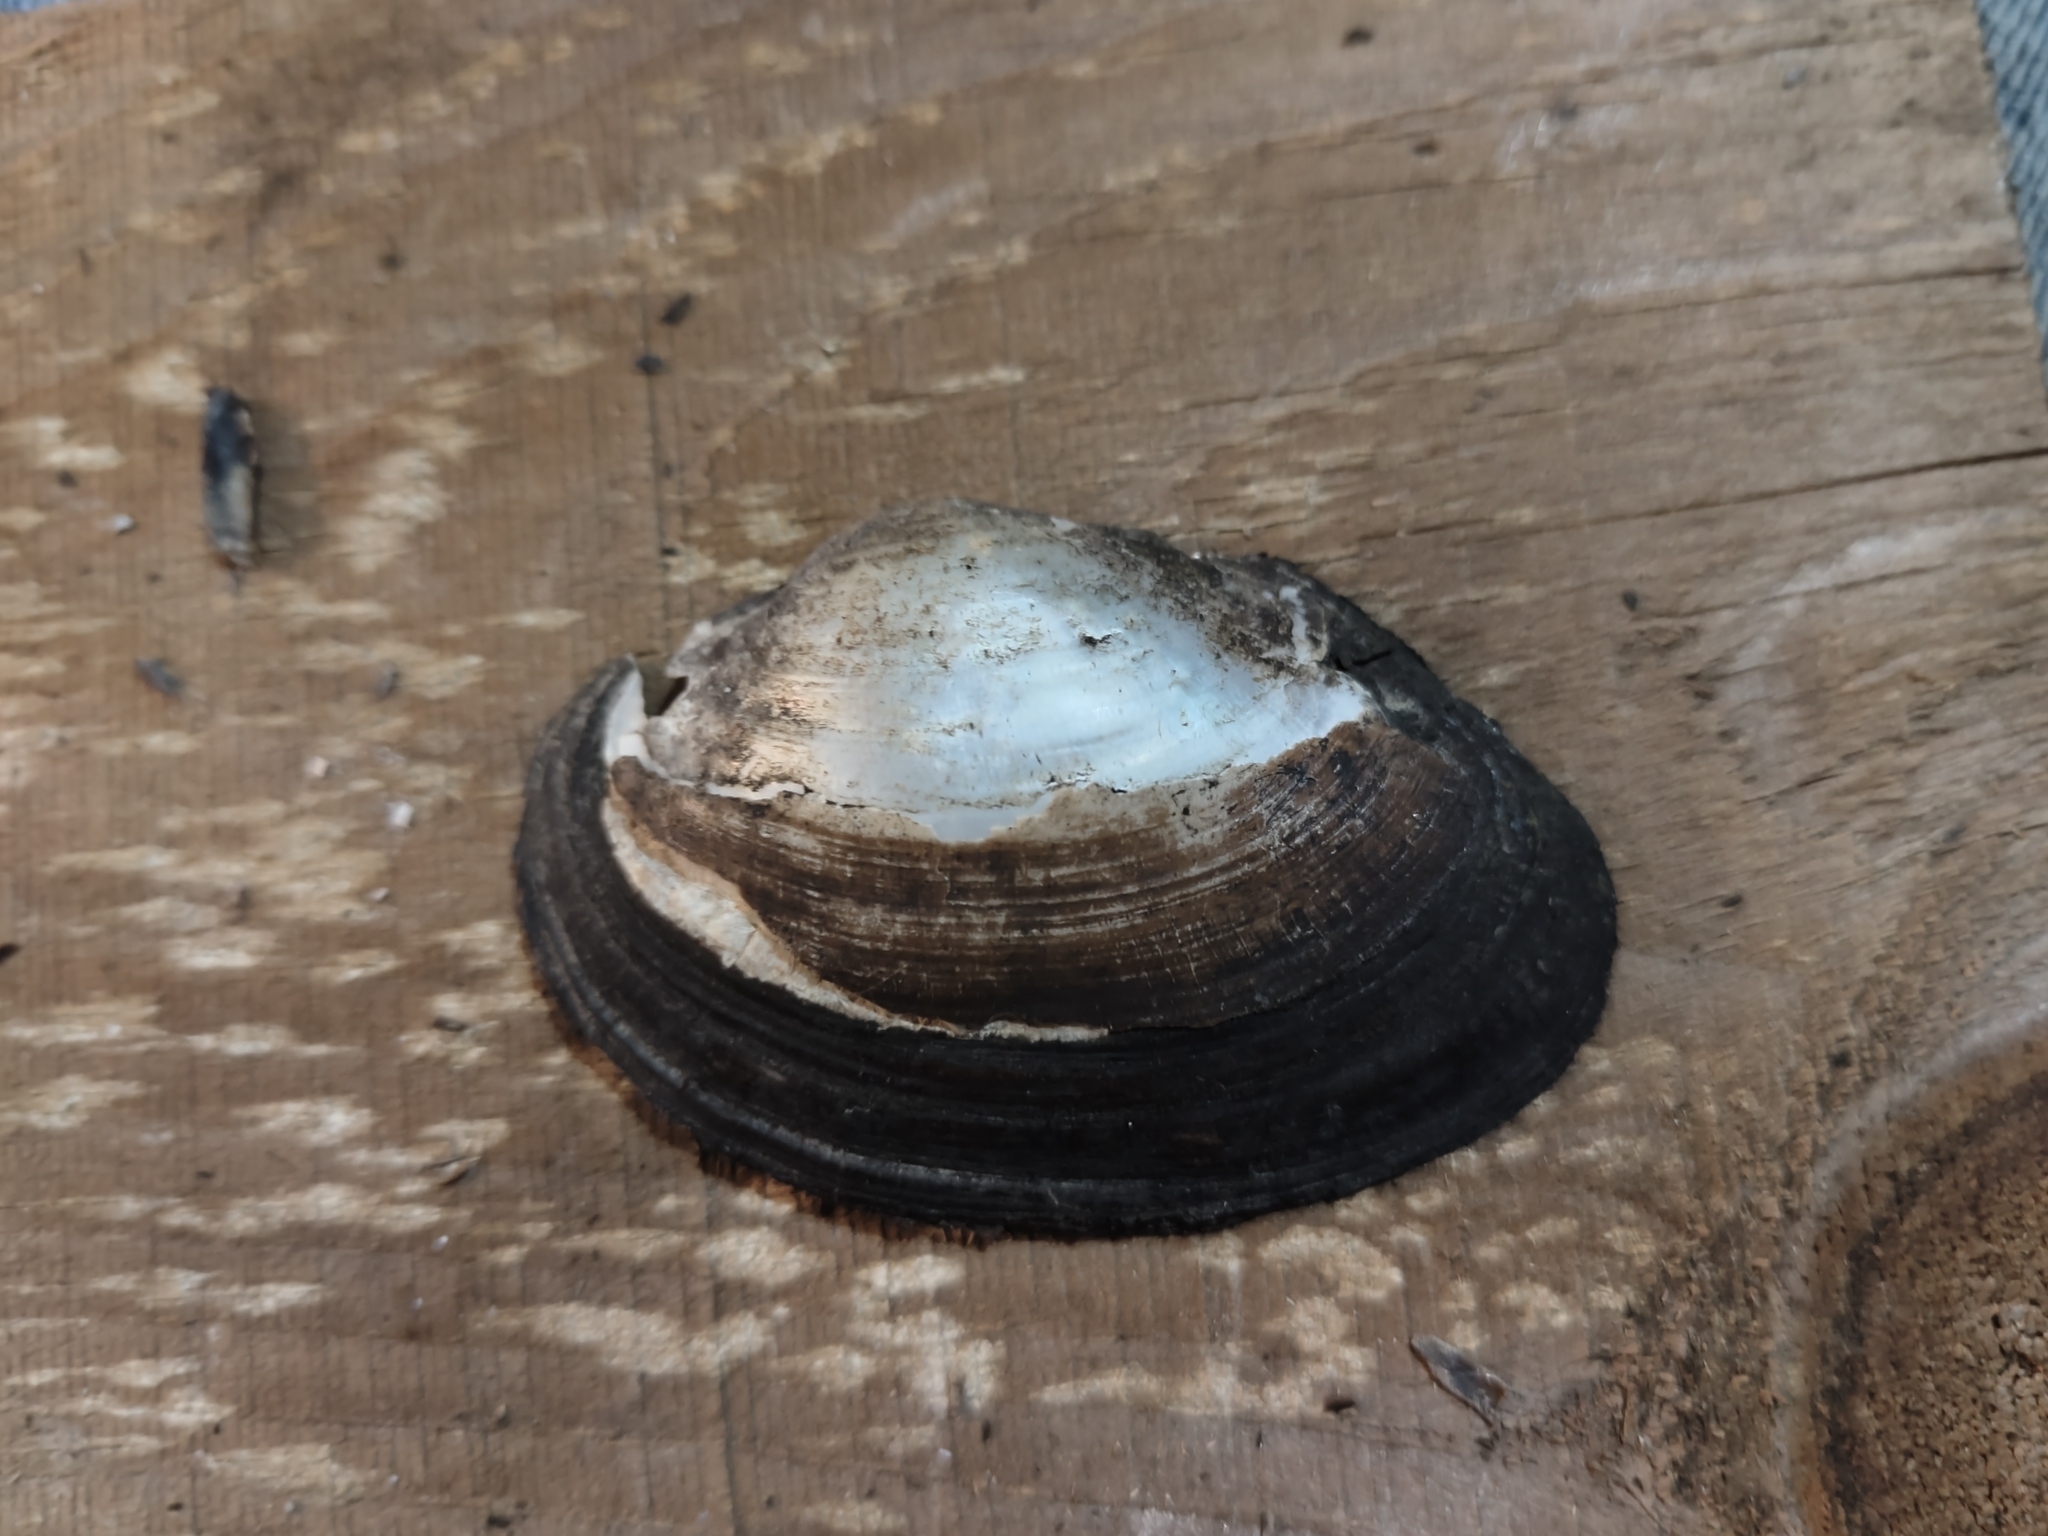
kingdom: Animalia
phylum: Mollusca
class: Bivalvia
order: Unionida
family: Unionidae
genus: Pyganodon
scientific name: Pyganodon grandis
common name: Giant floater
